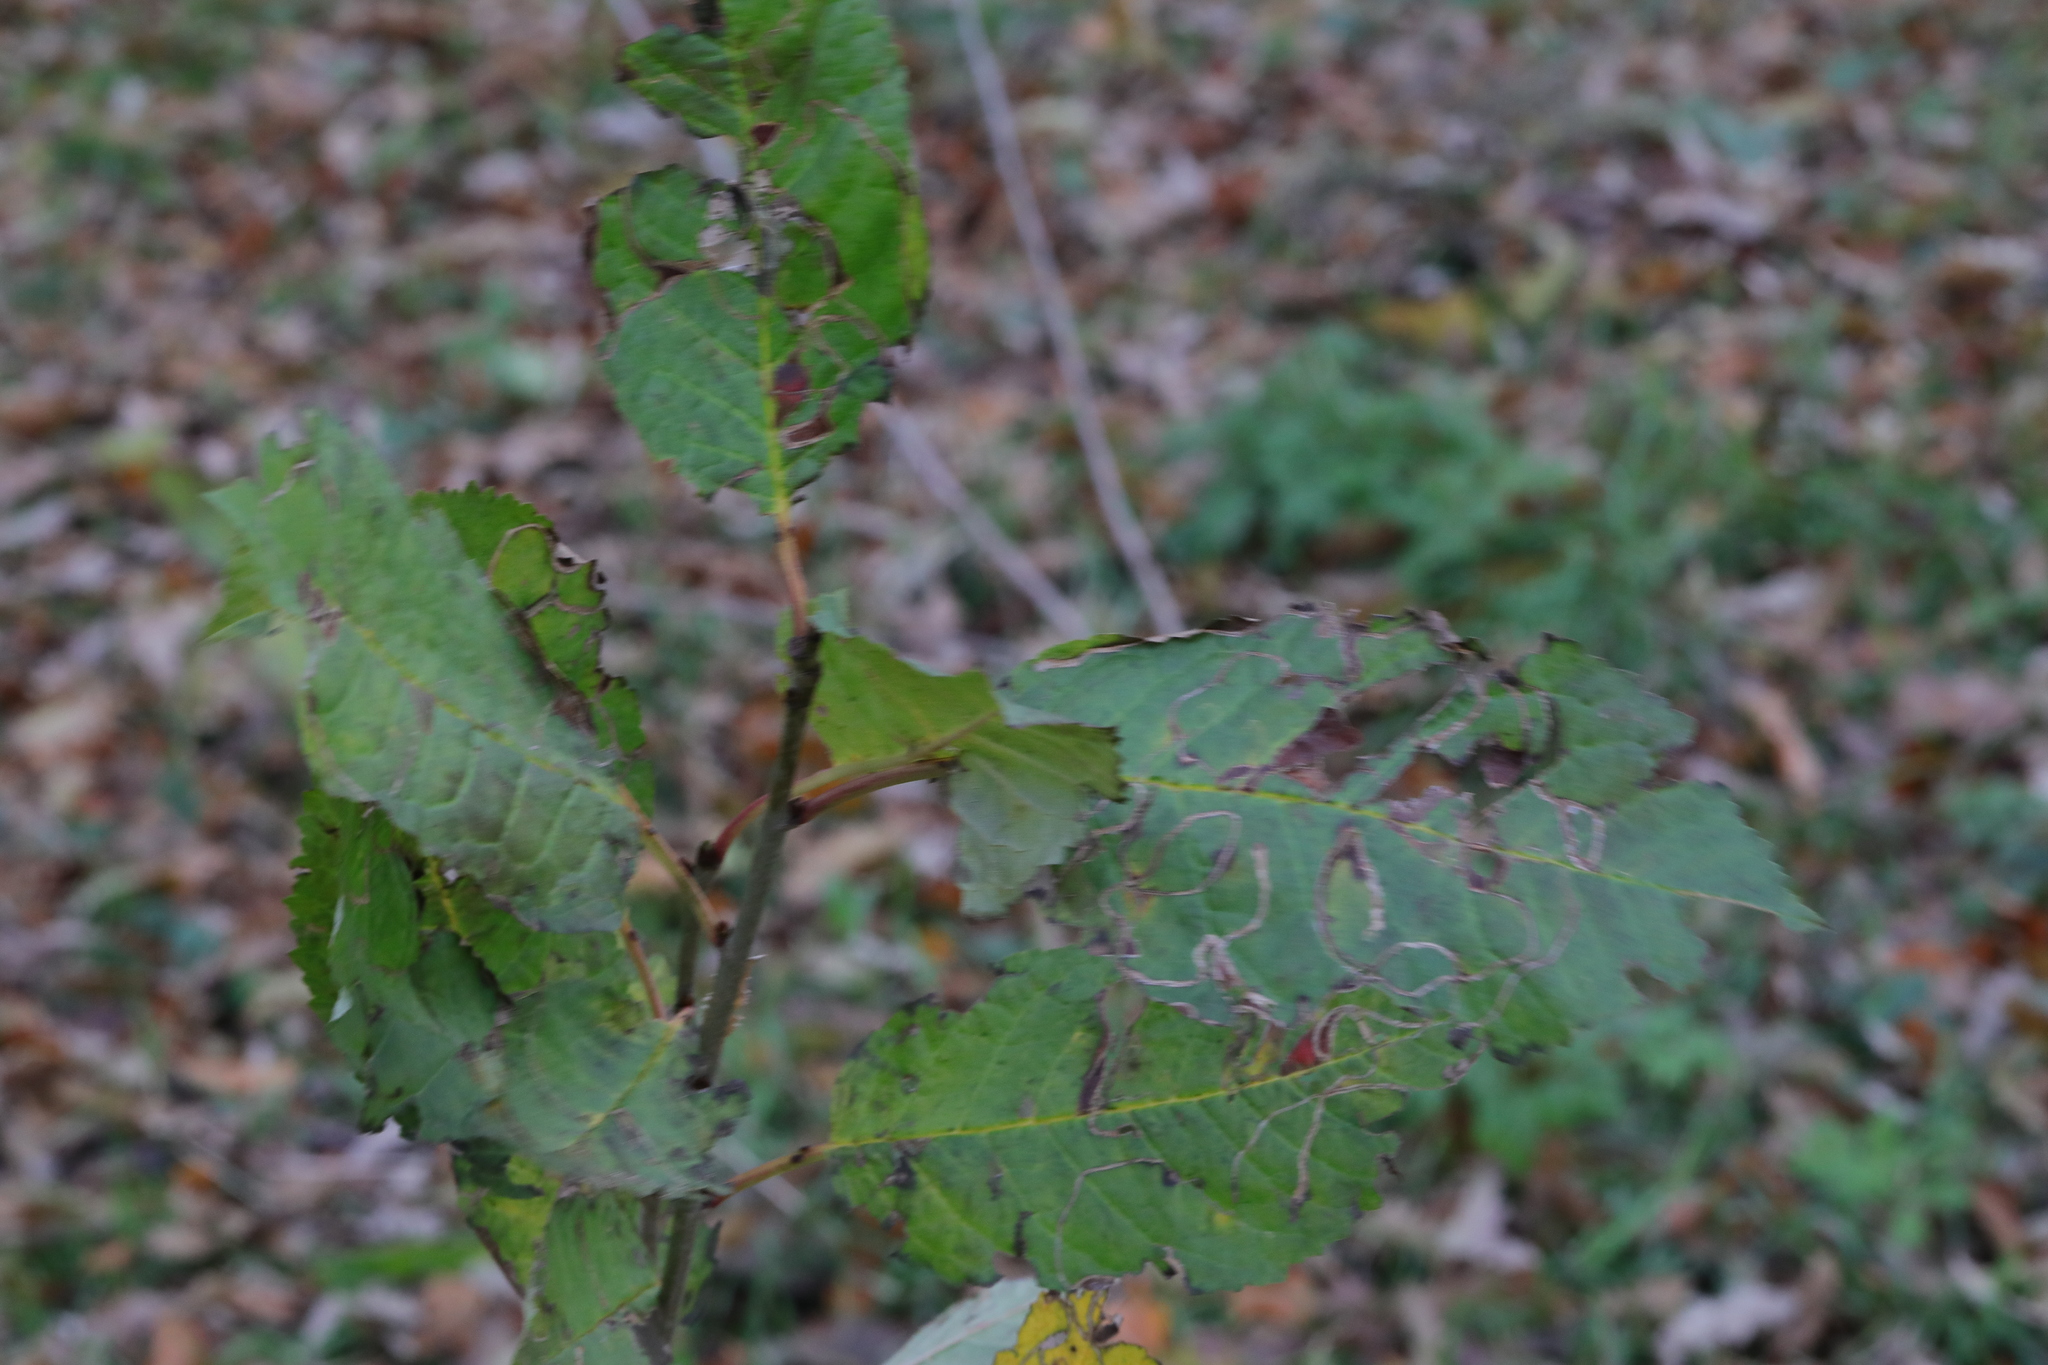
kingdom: Plantae
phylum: Tracheophyta
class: Magnoliopsida
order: Rosales
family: Rosaceae
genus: Prunus
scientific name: Prunus avium
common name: Sweet cherry
